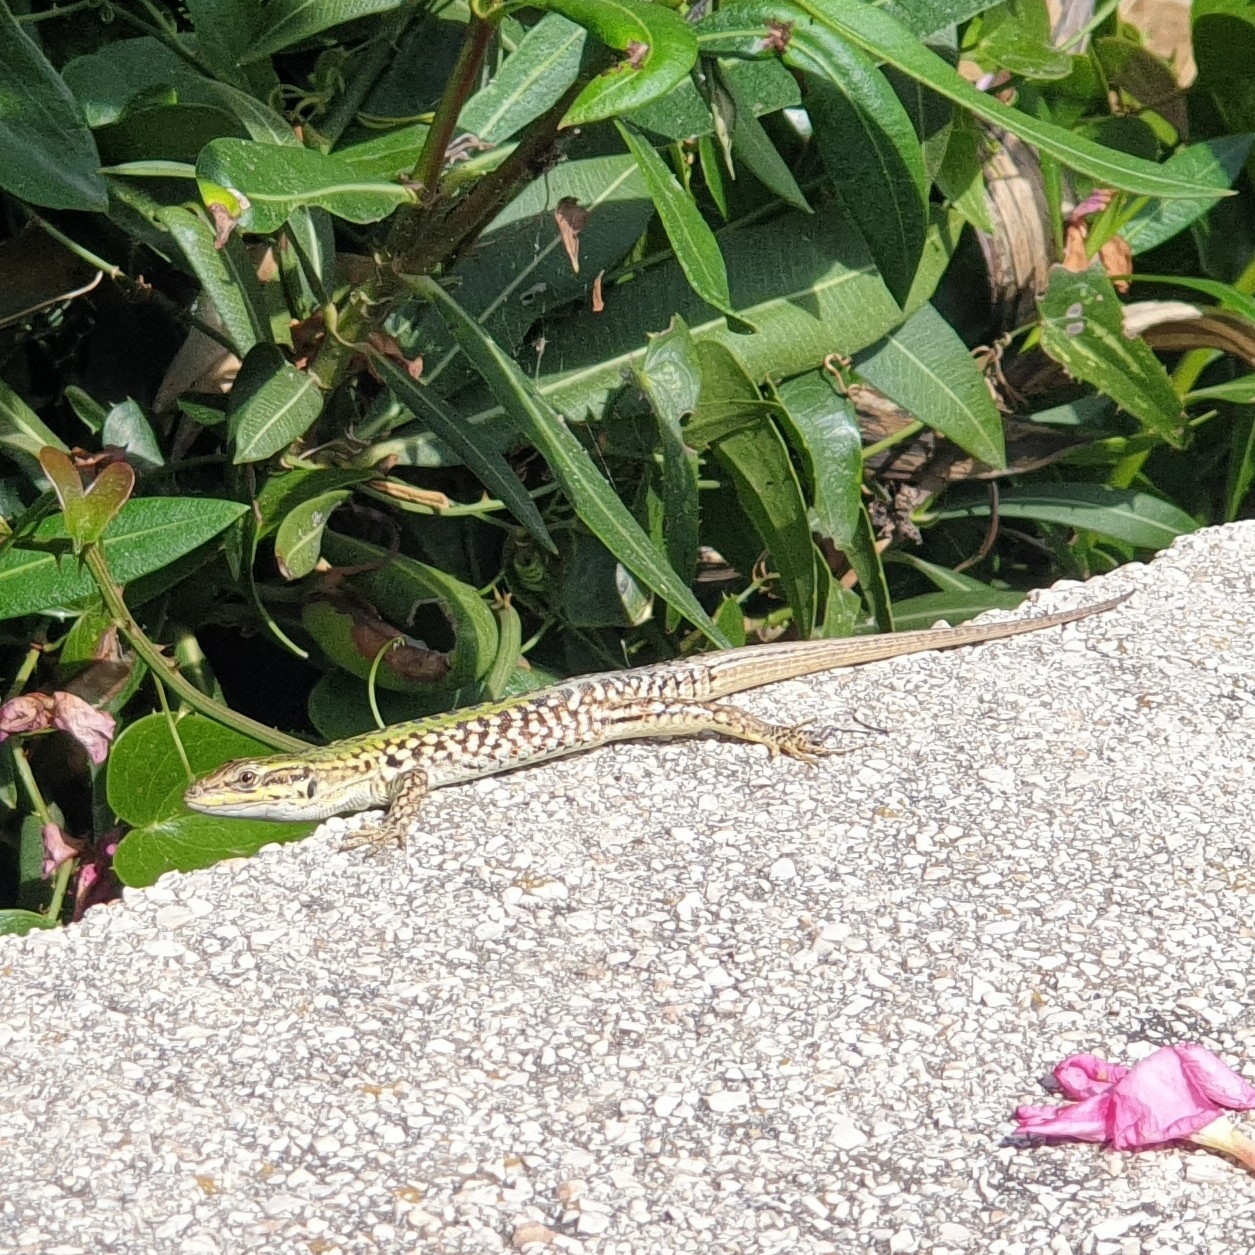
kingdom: Animalia
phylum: Chordata
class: Squamata
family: Lacertidae
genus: Podarcis
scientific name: Podarcis siculus
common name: Italian wall lizard
